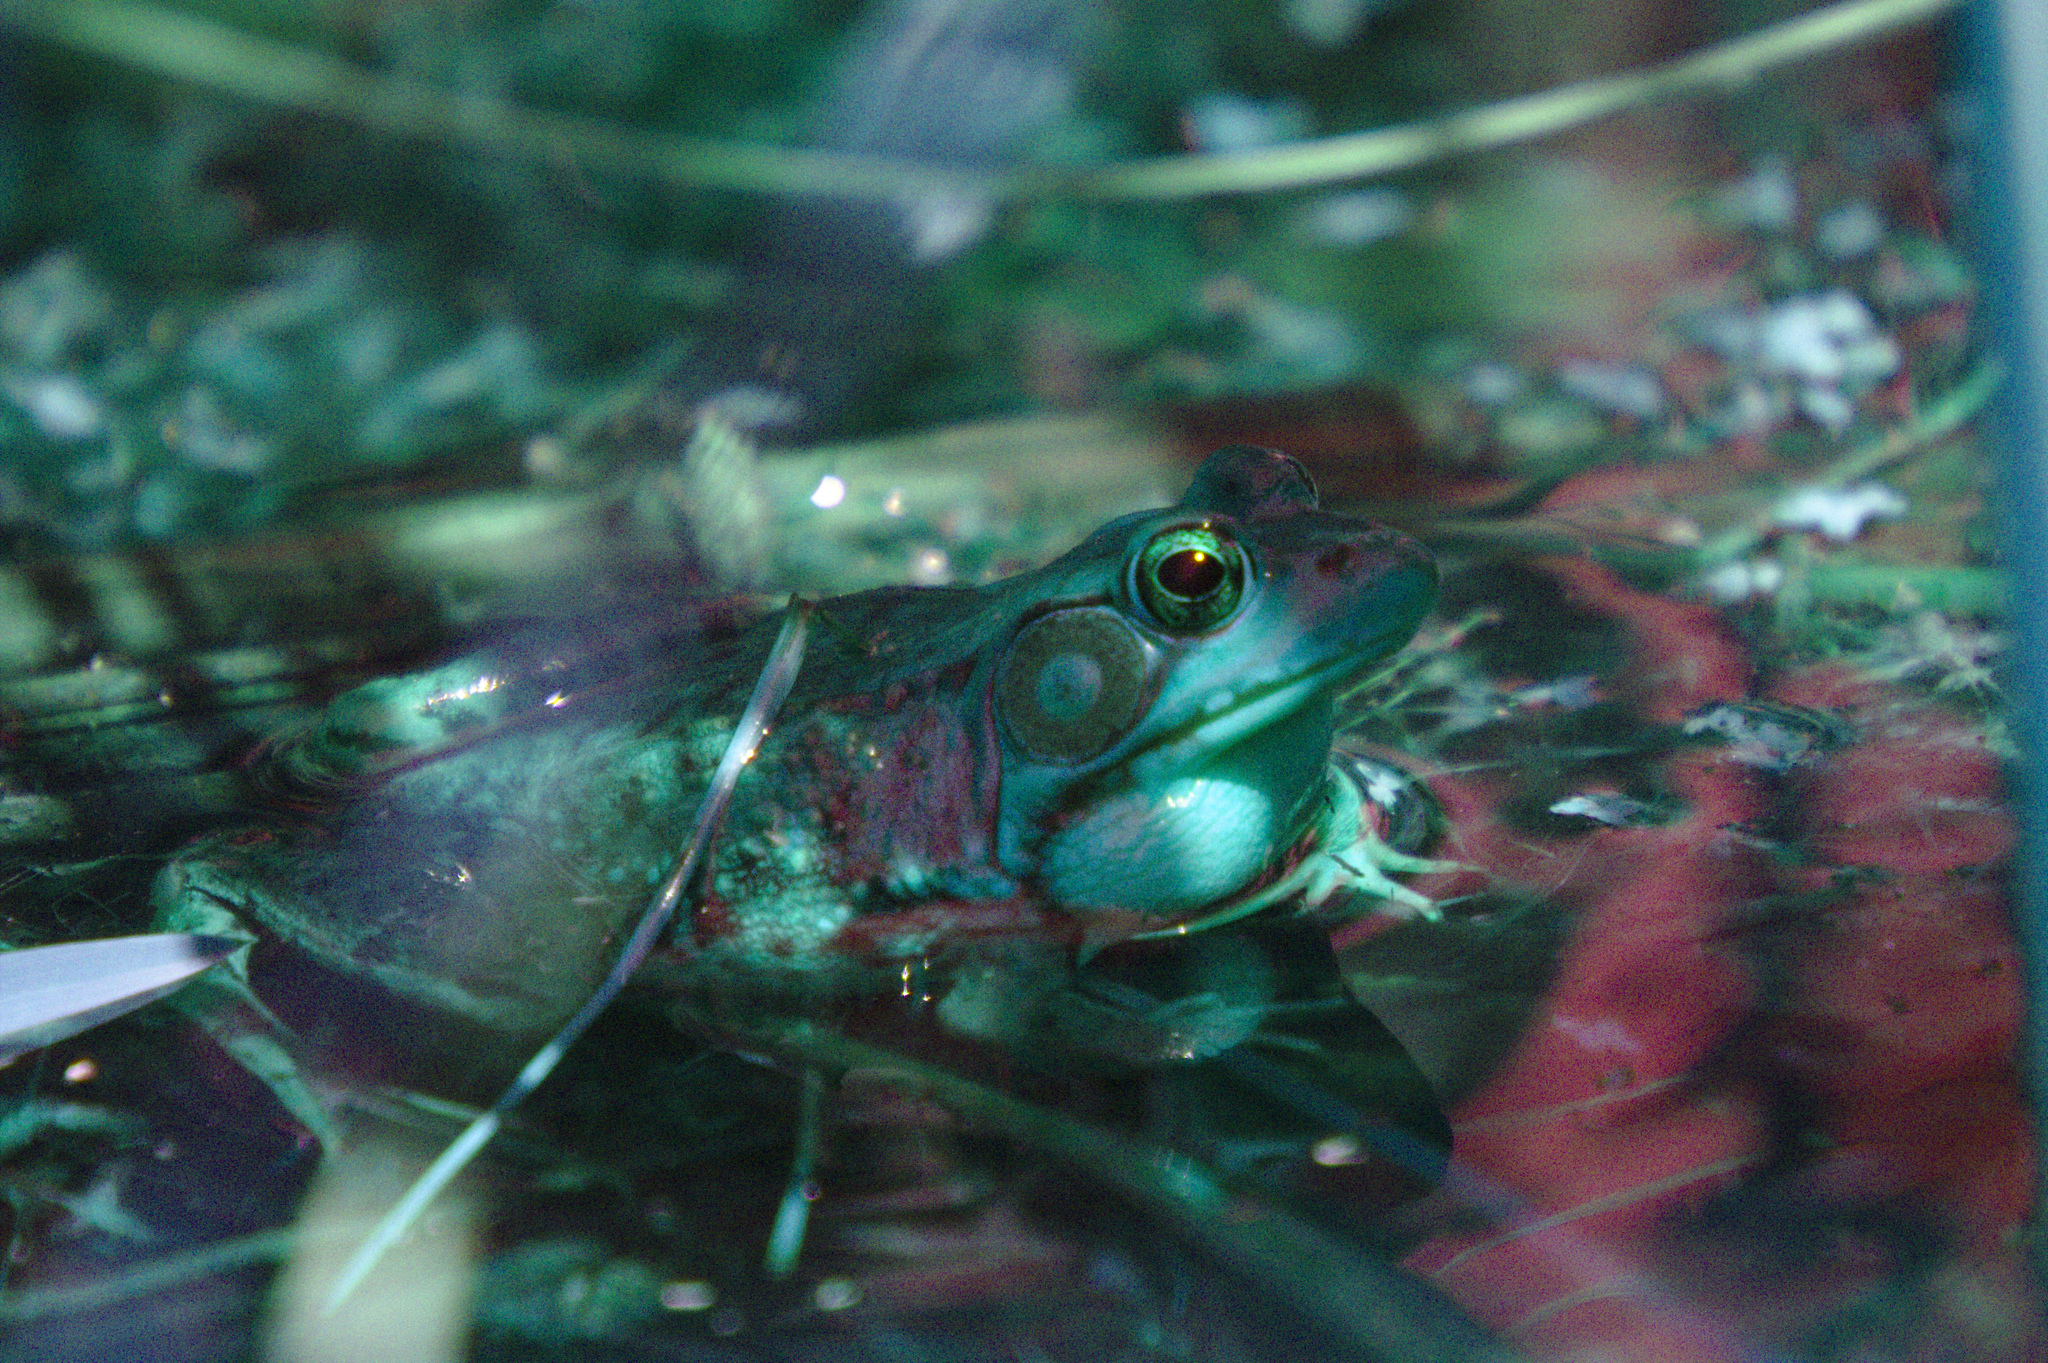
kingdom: Animalia
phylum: Chordata
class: Amphibia
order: Anura
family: Ranidae
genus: Lithobates
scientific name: Lithobates clamitans
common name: Green frog
